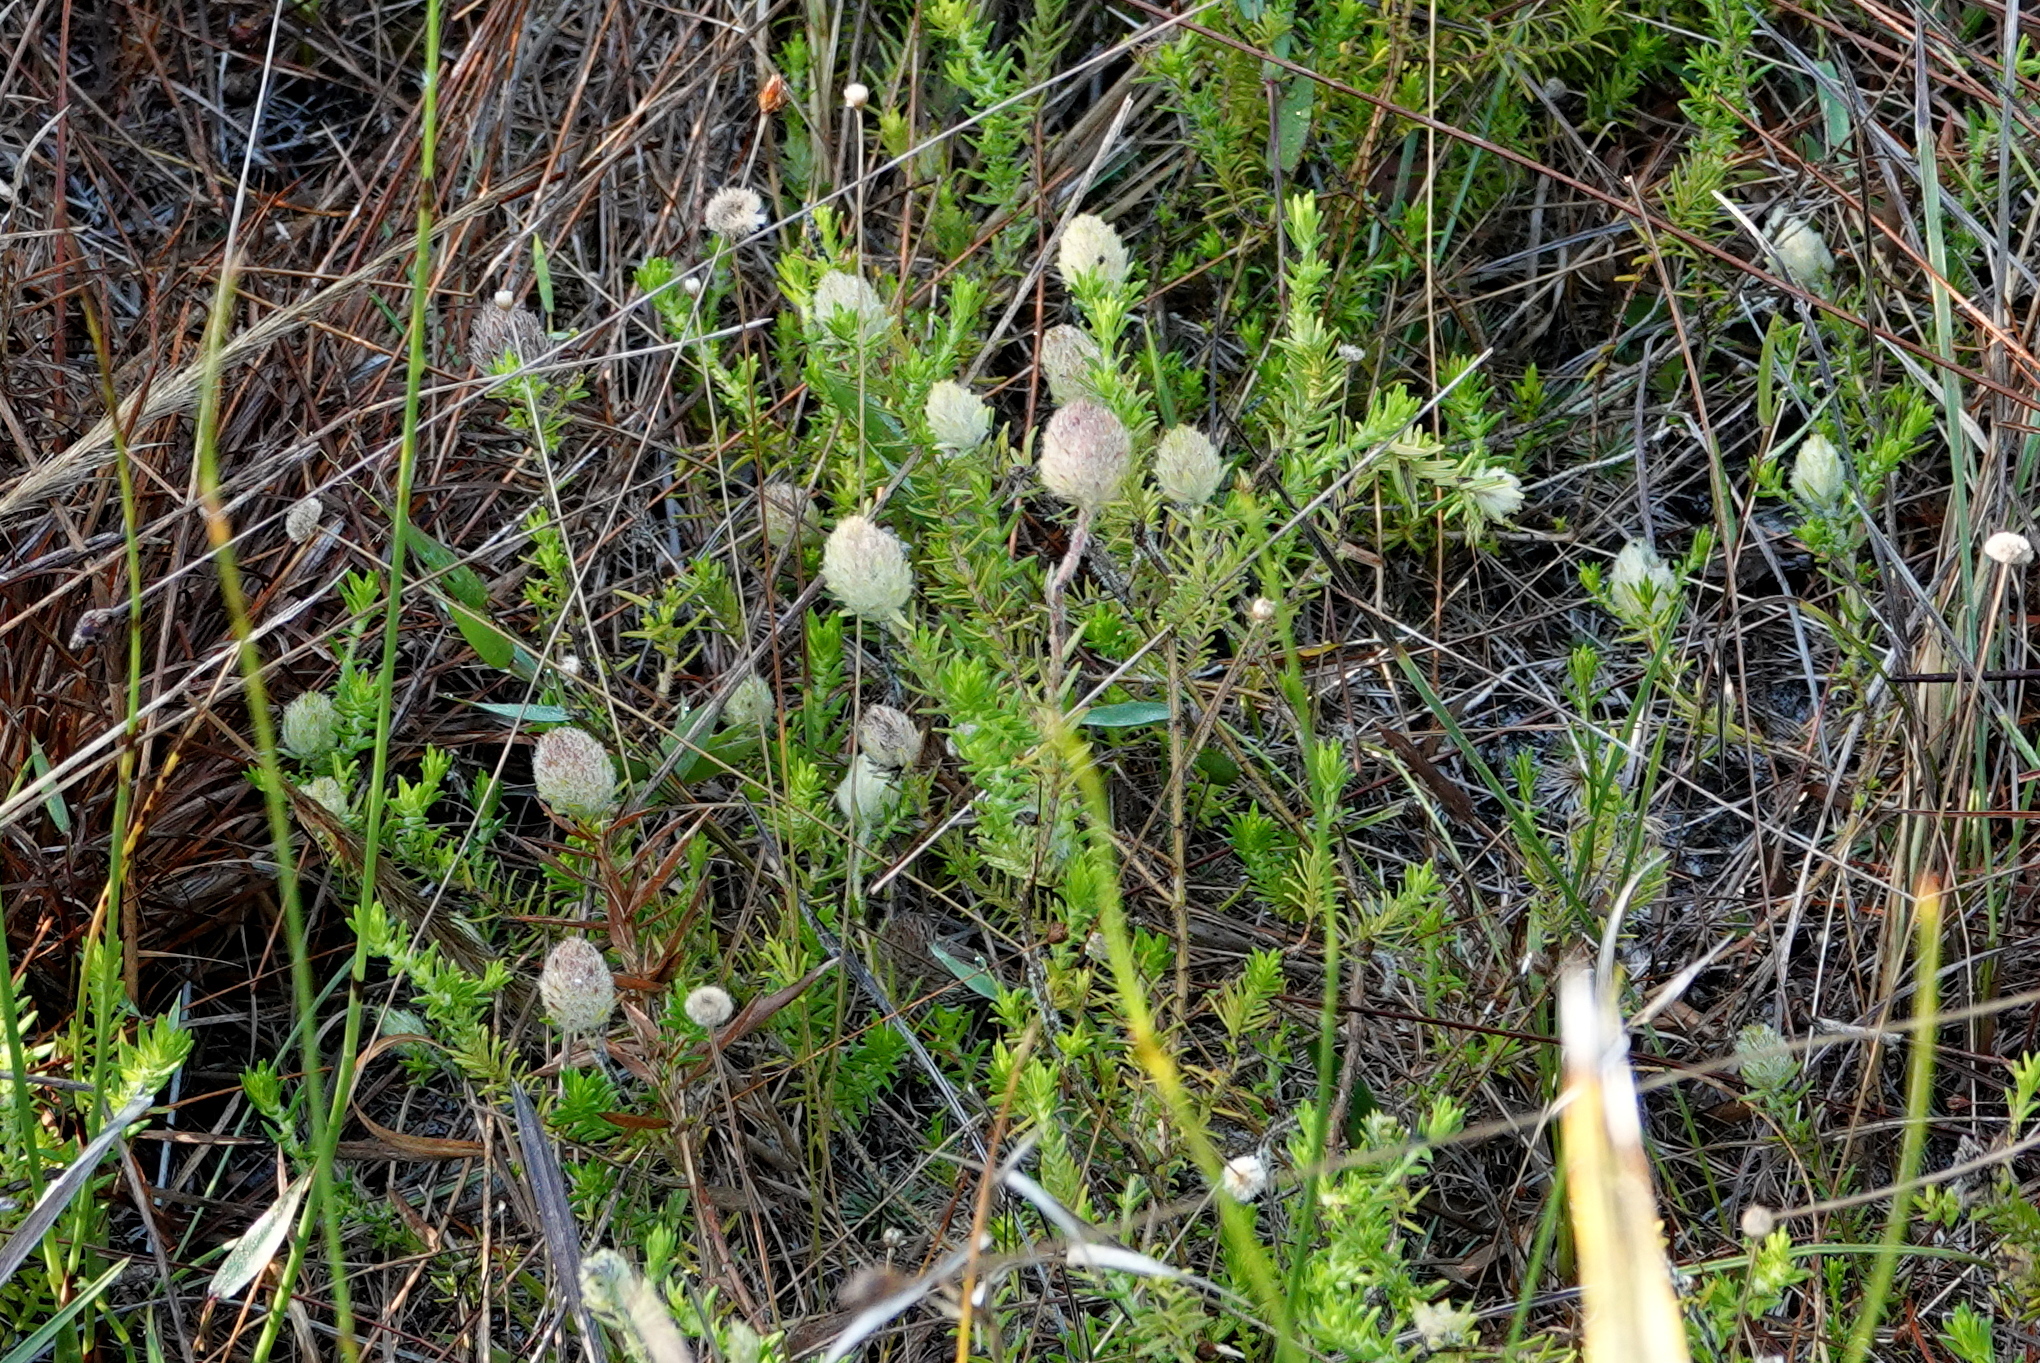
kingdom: Plantae
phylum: Tracheophyta
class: Magnoliopsida
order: Lamiales
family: Lamiaceae
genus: Piloblephis
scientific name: Piloblephis rigida
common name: Wild pennyroyal
